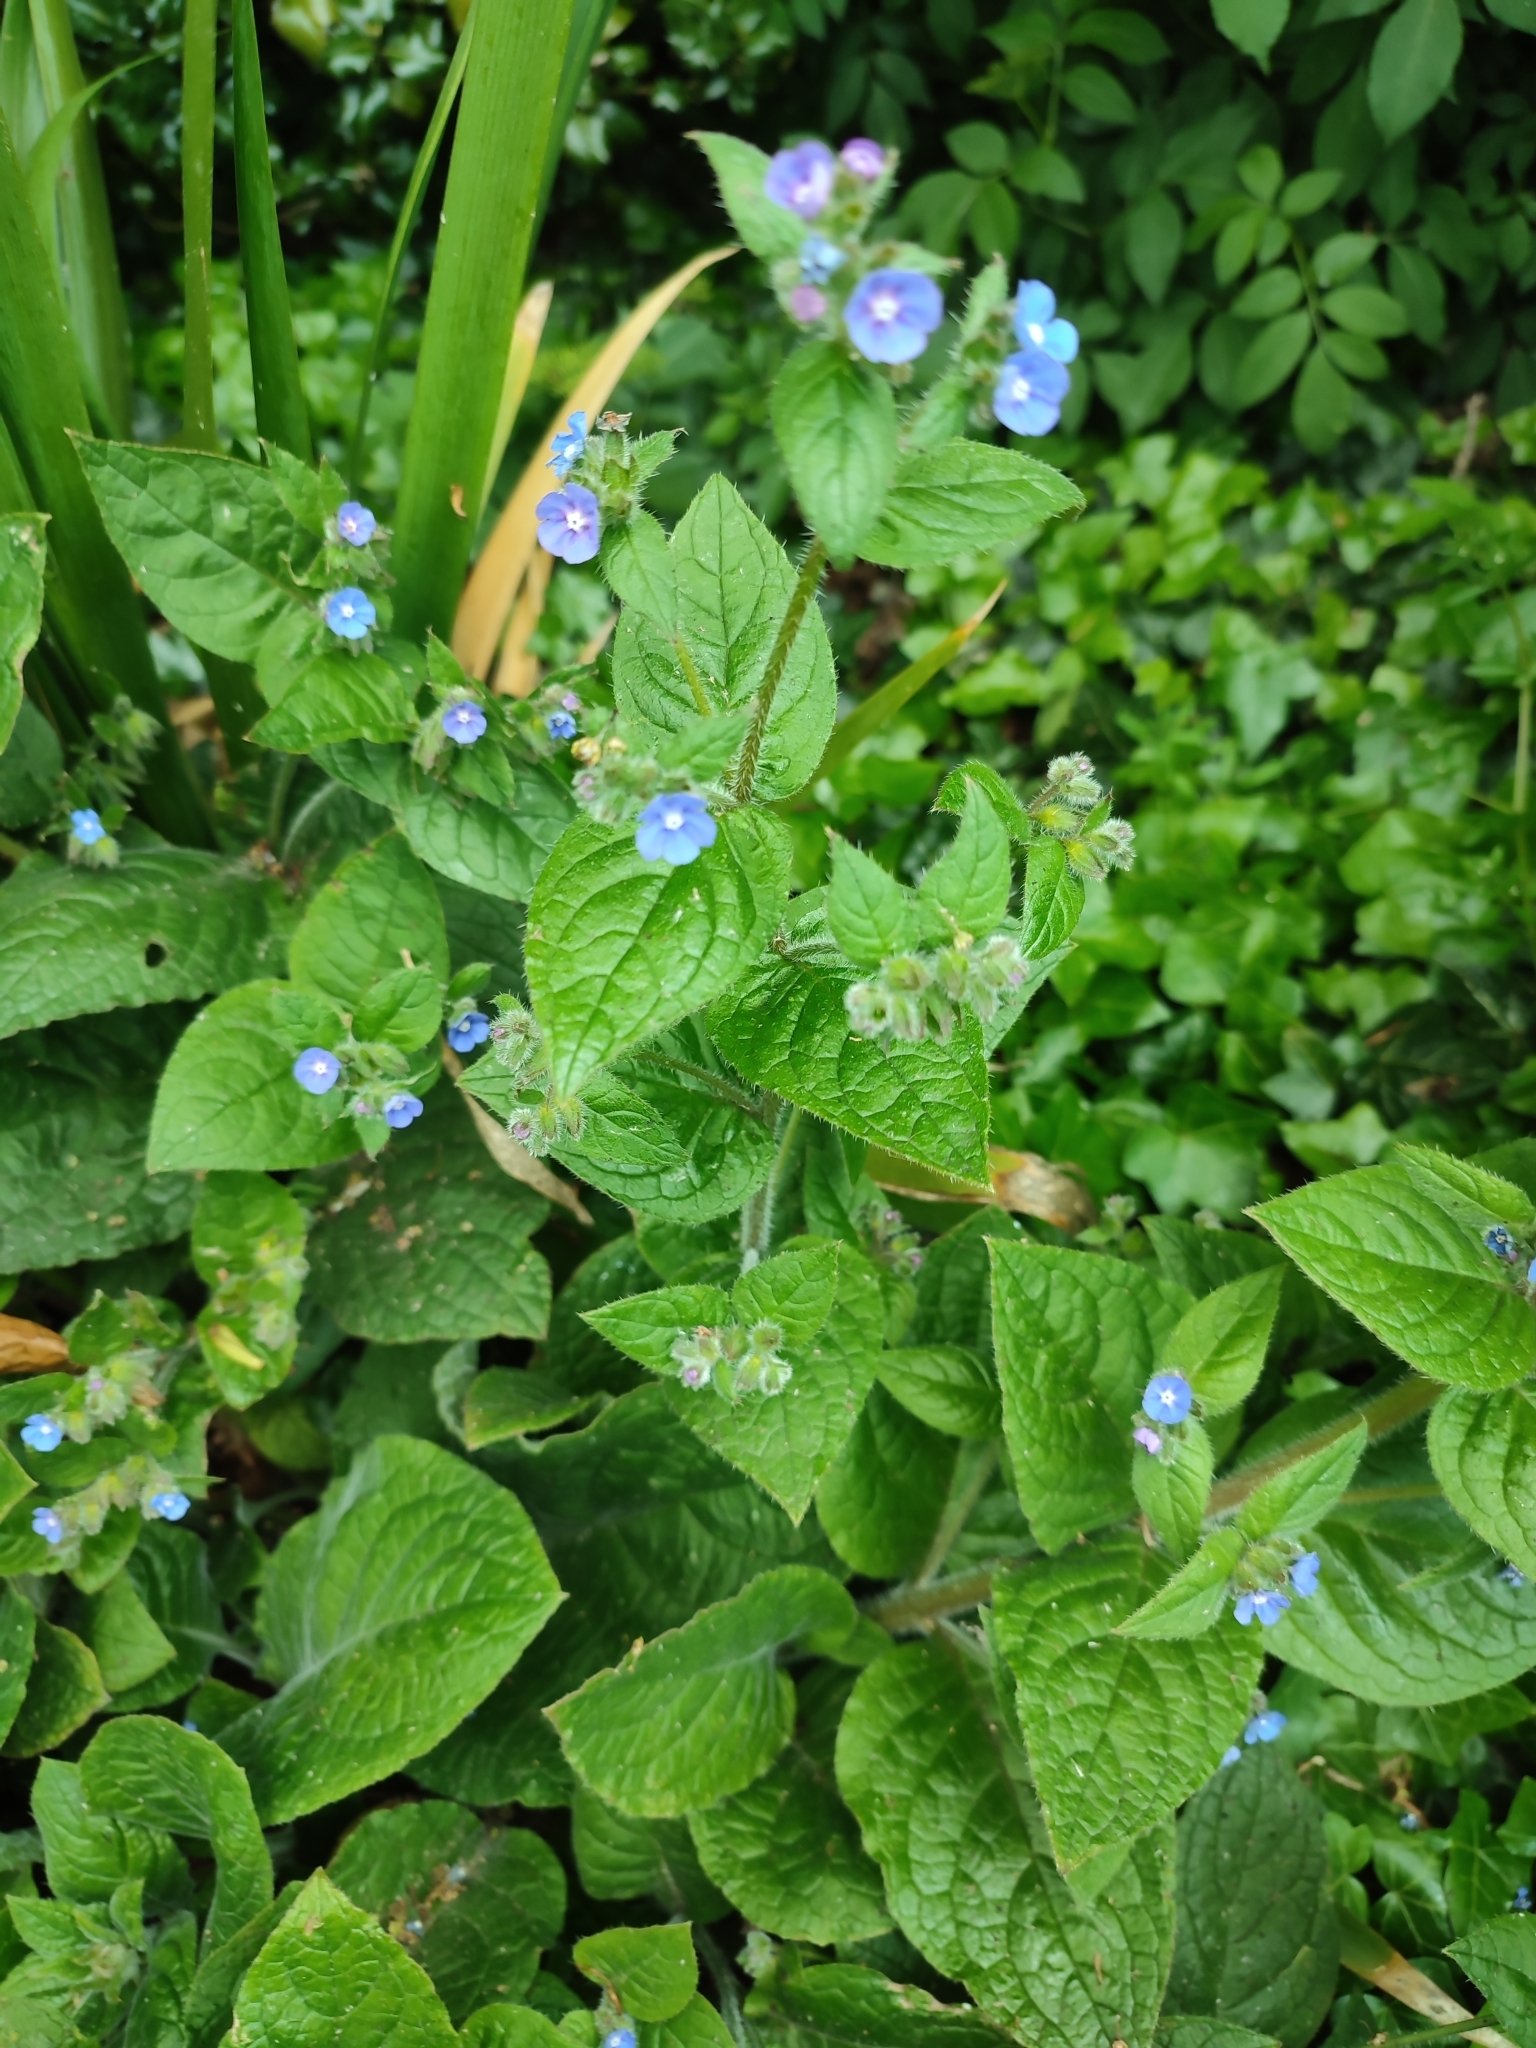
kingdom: Plantae
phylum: Tracheophyta
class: Magnoliopsida
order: Boraginales
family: Boraginaceae
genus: Pentaglottis
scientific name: Pentaglottis sempervirens
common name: Green alkanet
